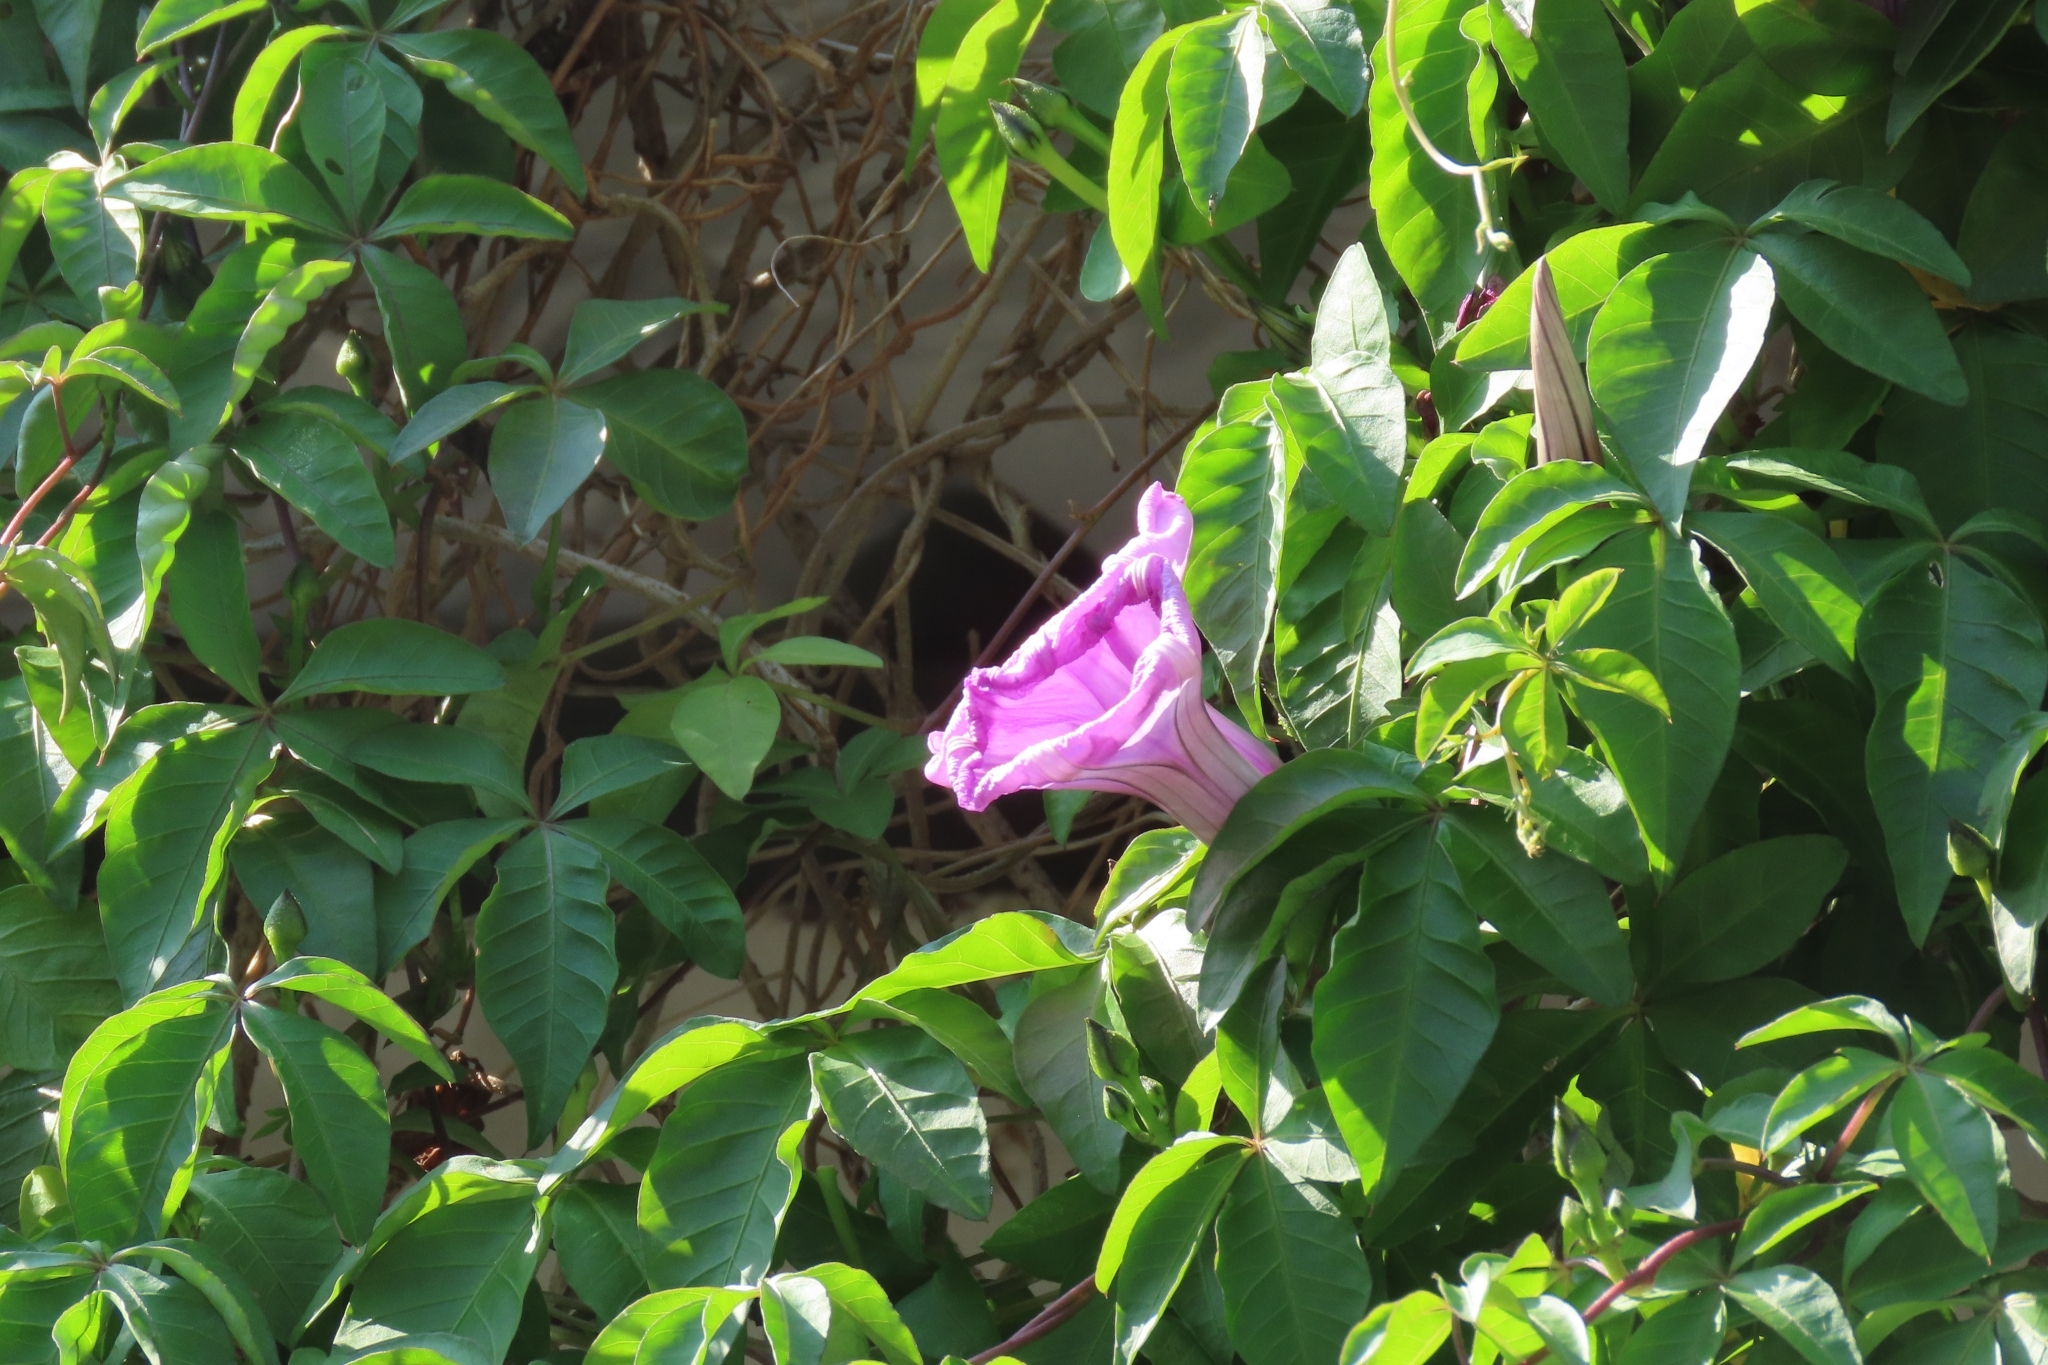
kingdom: Plantae
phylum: Tracheophyta
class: Magnoliopsida
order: Solanales
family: Convolvulaceae
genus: Ipomoea
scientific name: Ipomoea cairica
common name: Mile a minute vine
